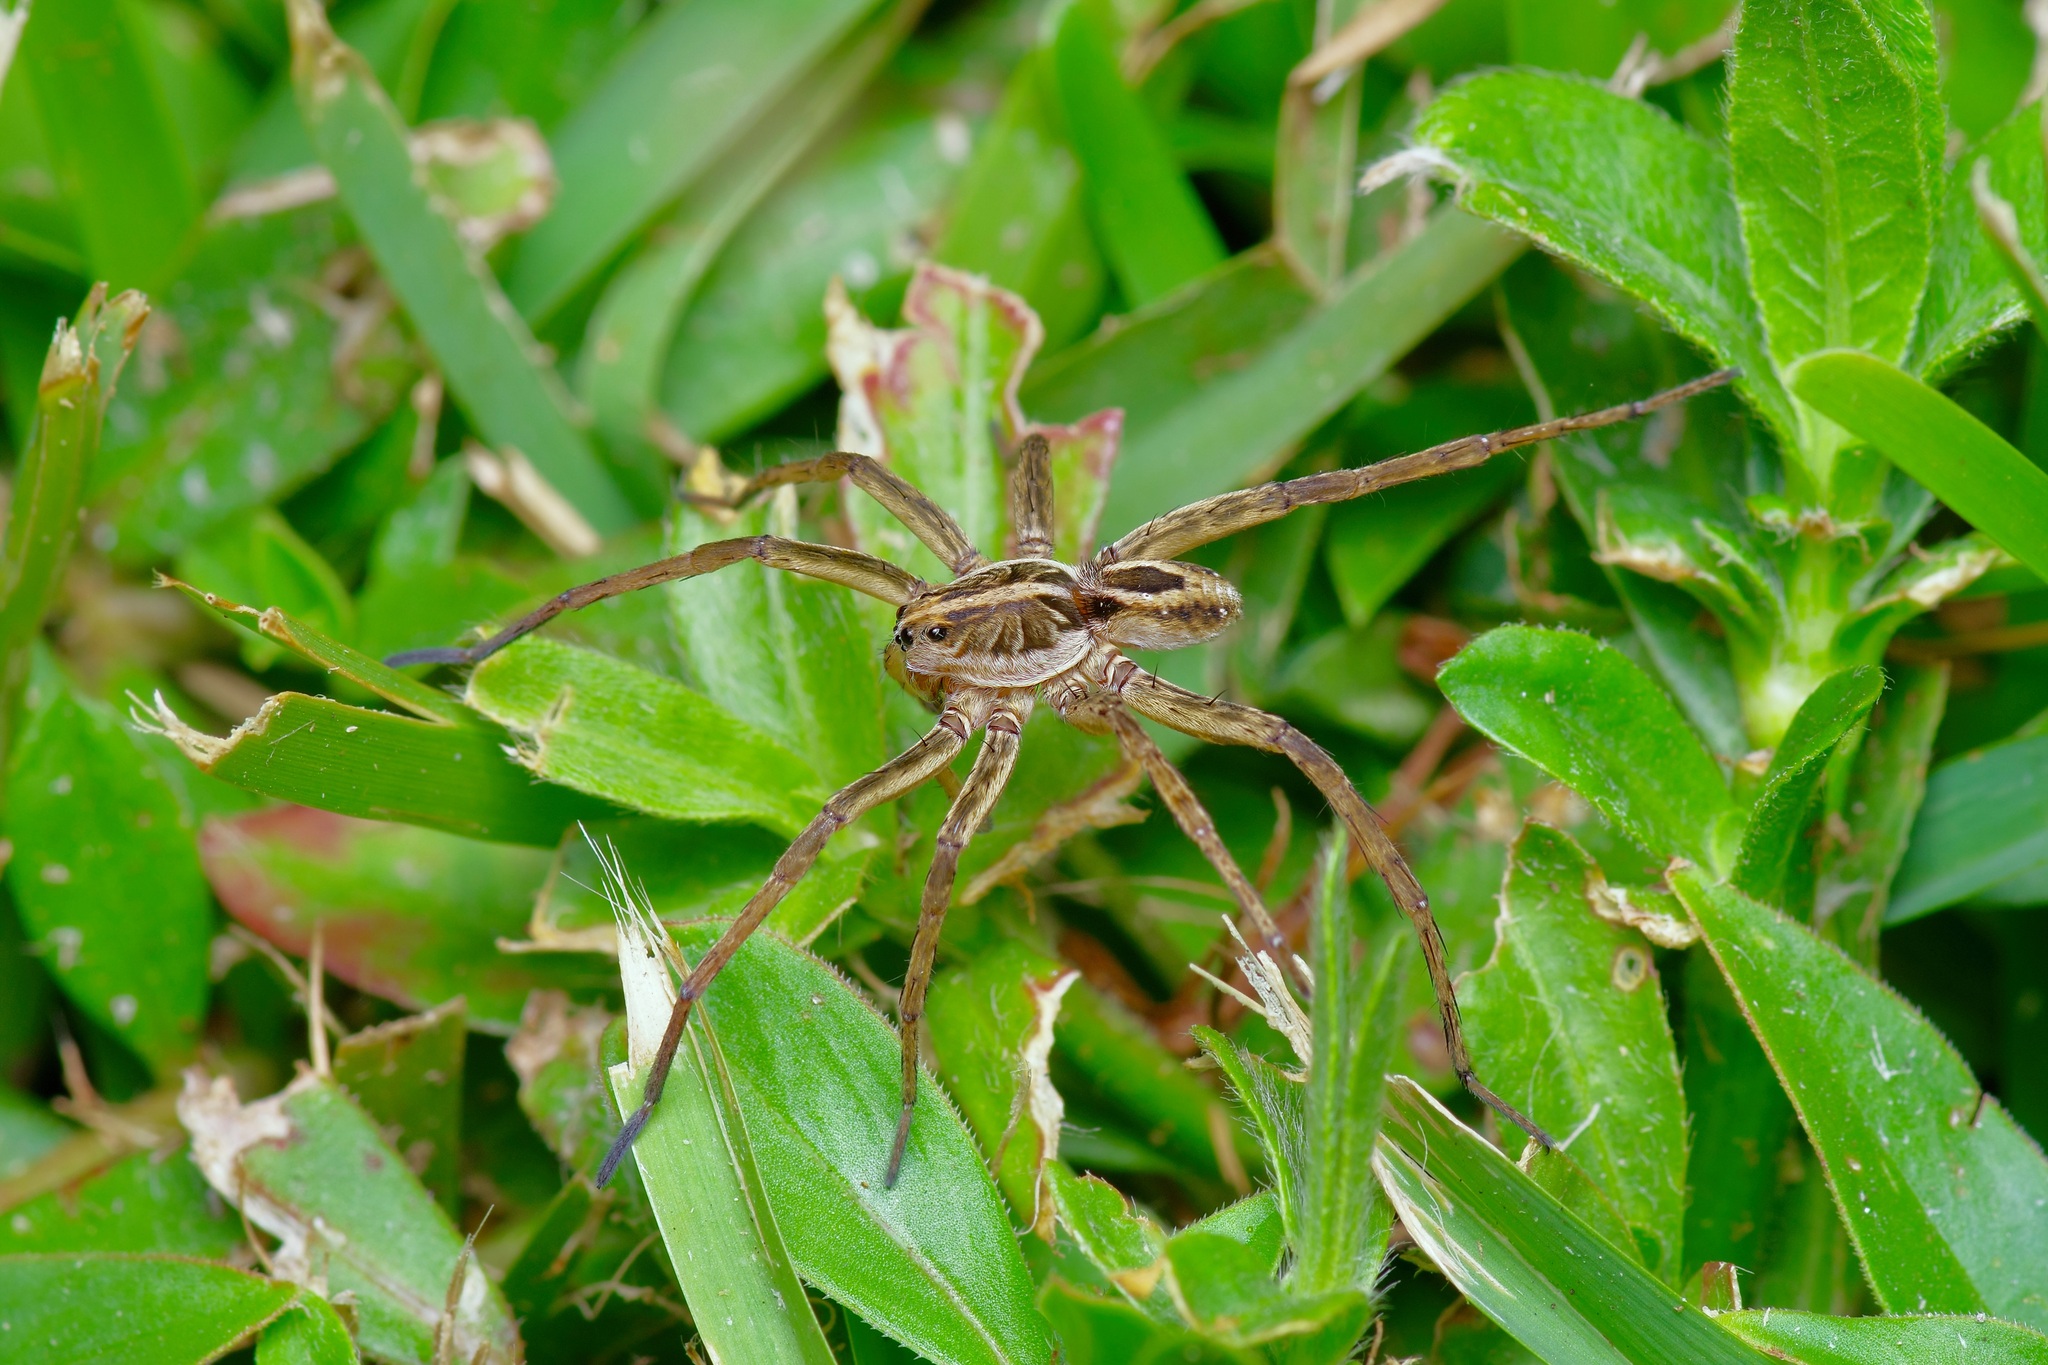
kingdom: Animalia
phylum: Arthropoda
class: Arachnida
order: Araneae
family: Lycosidae
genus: Tigrosa
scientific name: Tigrosa annexa
